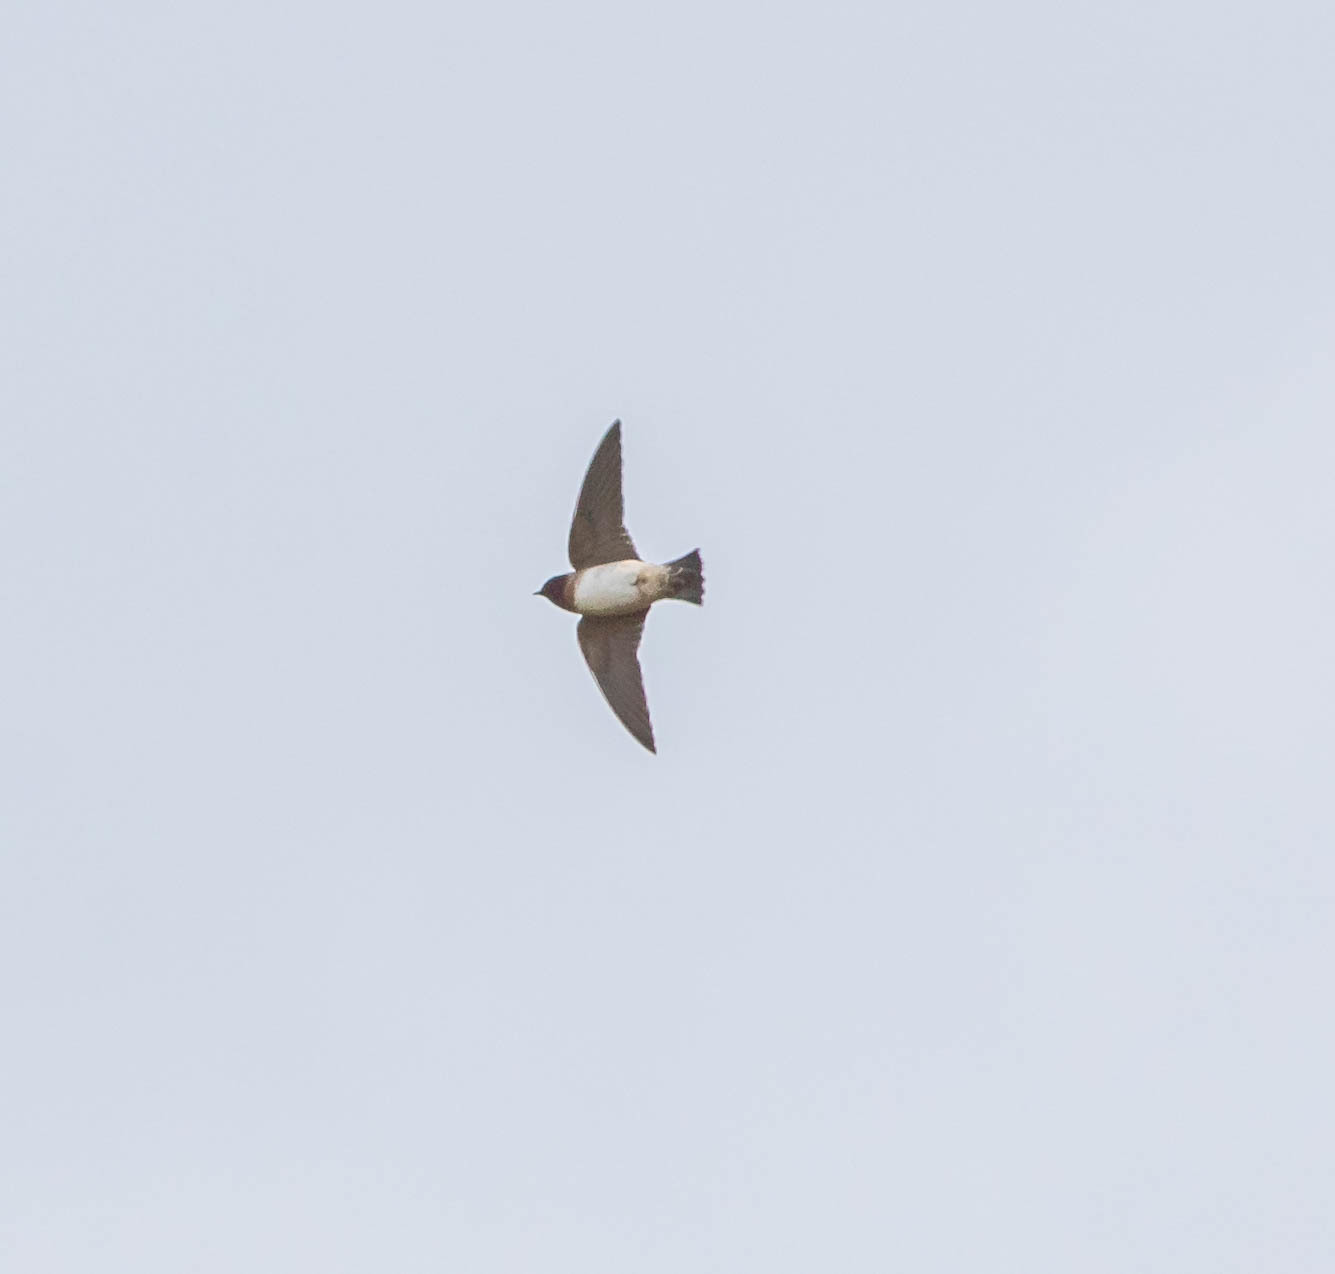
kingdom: Animalia
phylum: Chordata
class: Aves
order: Passeriformes
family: Hirundinidae
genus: Petrochelidon
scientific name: Petrochelidon
